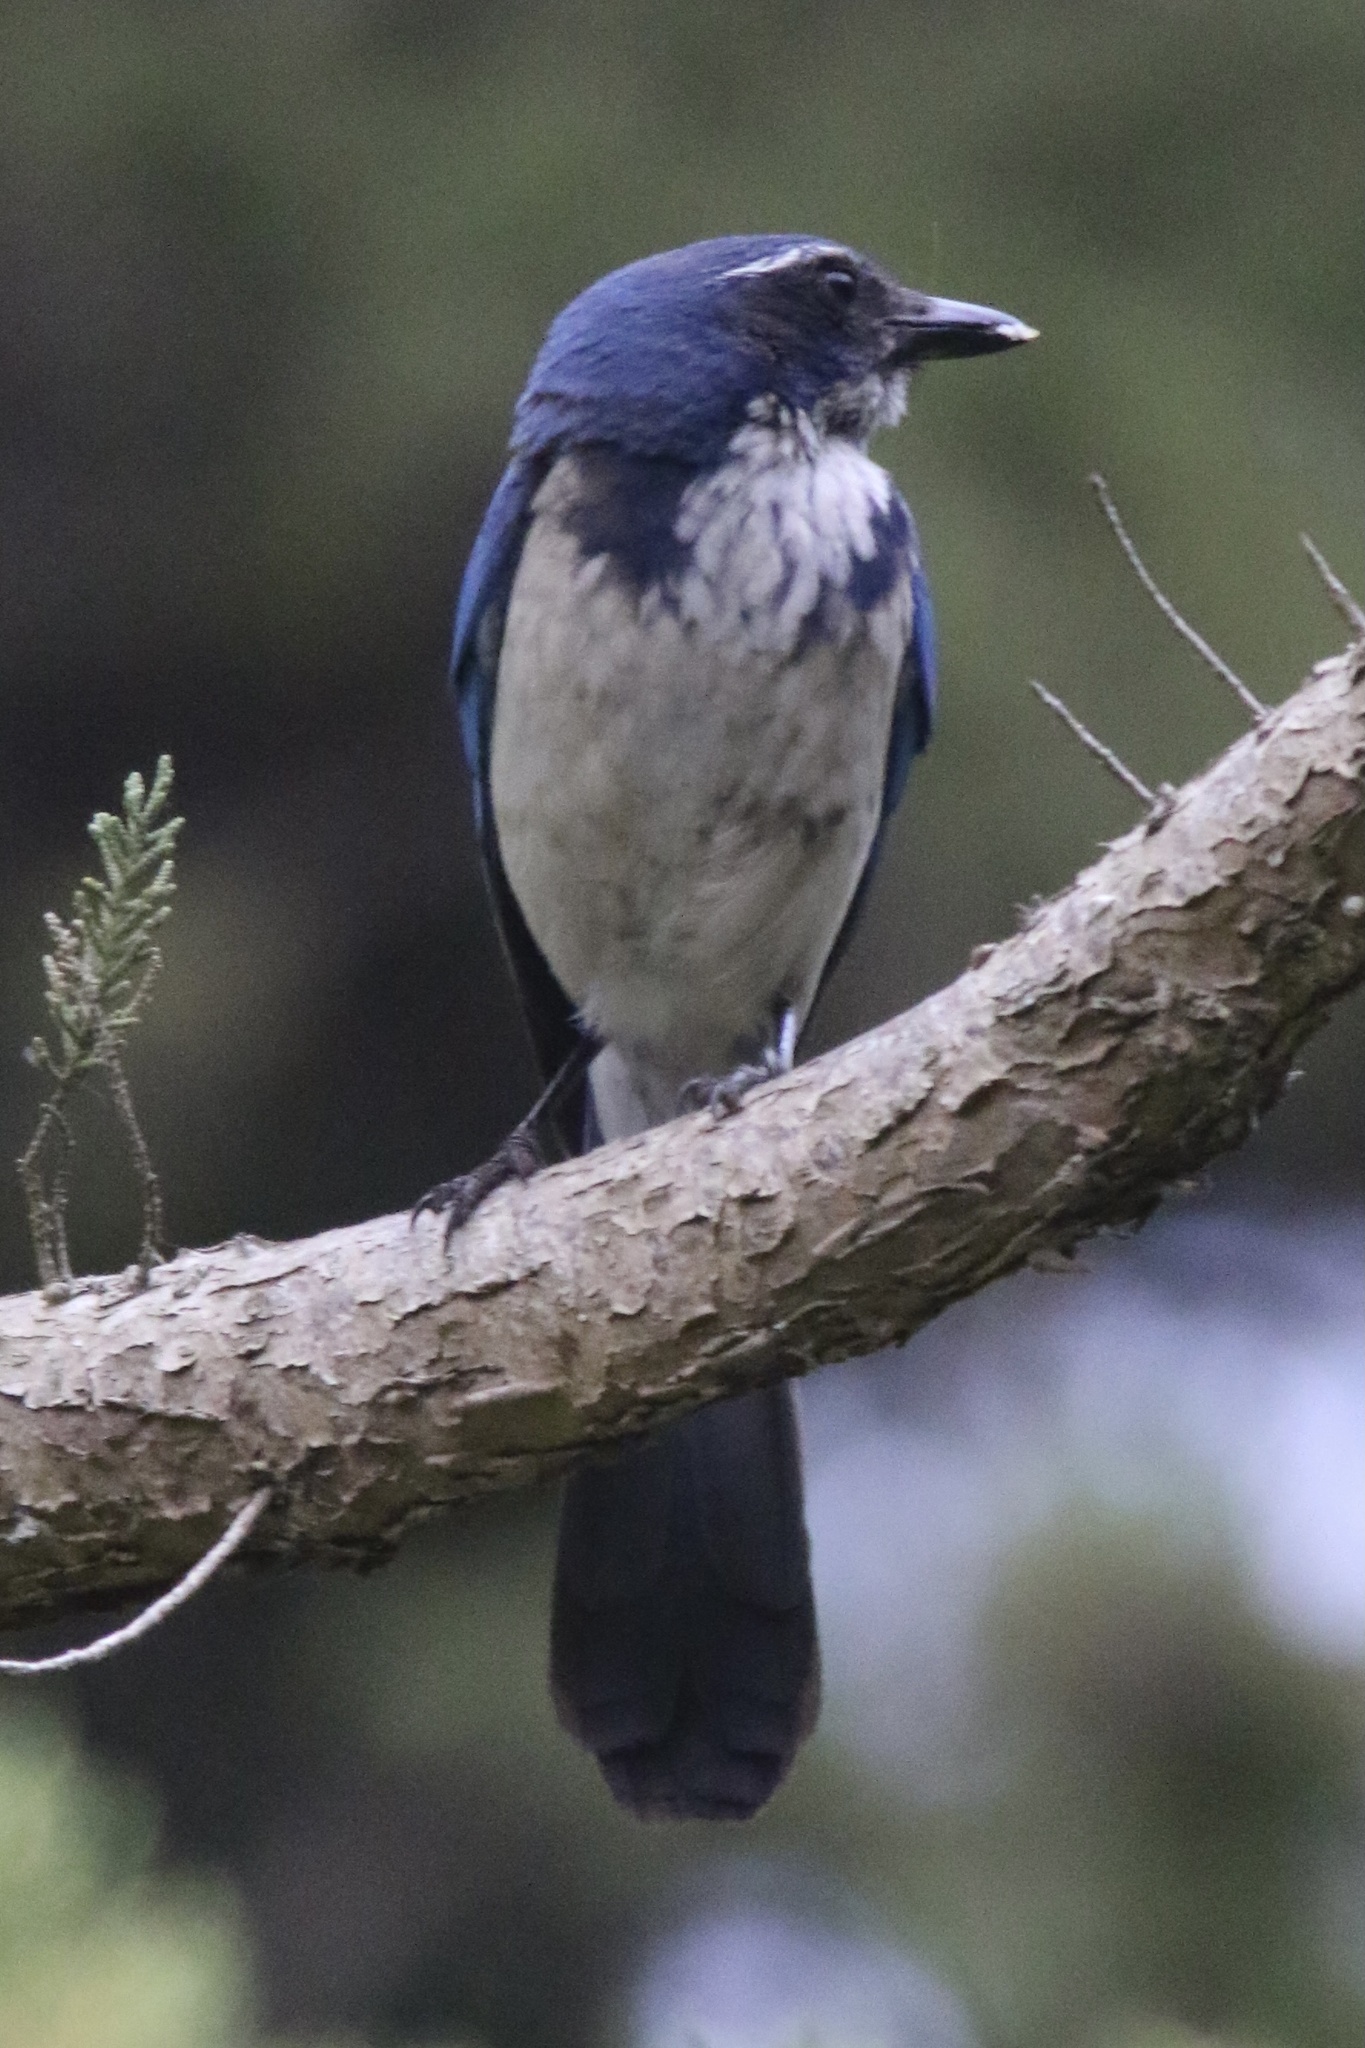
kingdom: Animalia
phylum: Chordata
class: Aves
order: Passeriformes
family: Corvidae
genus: Aphelocoma
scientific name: Aphelocoma californica
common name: California scrub-jay
